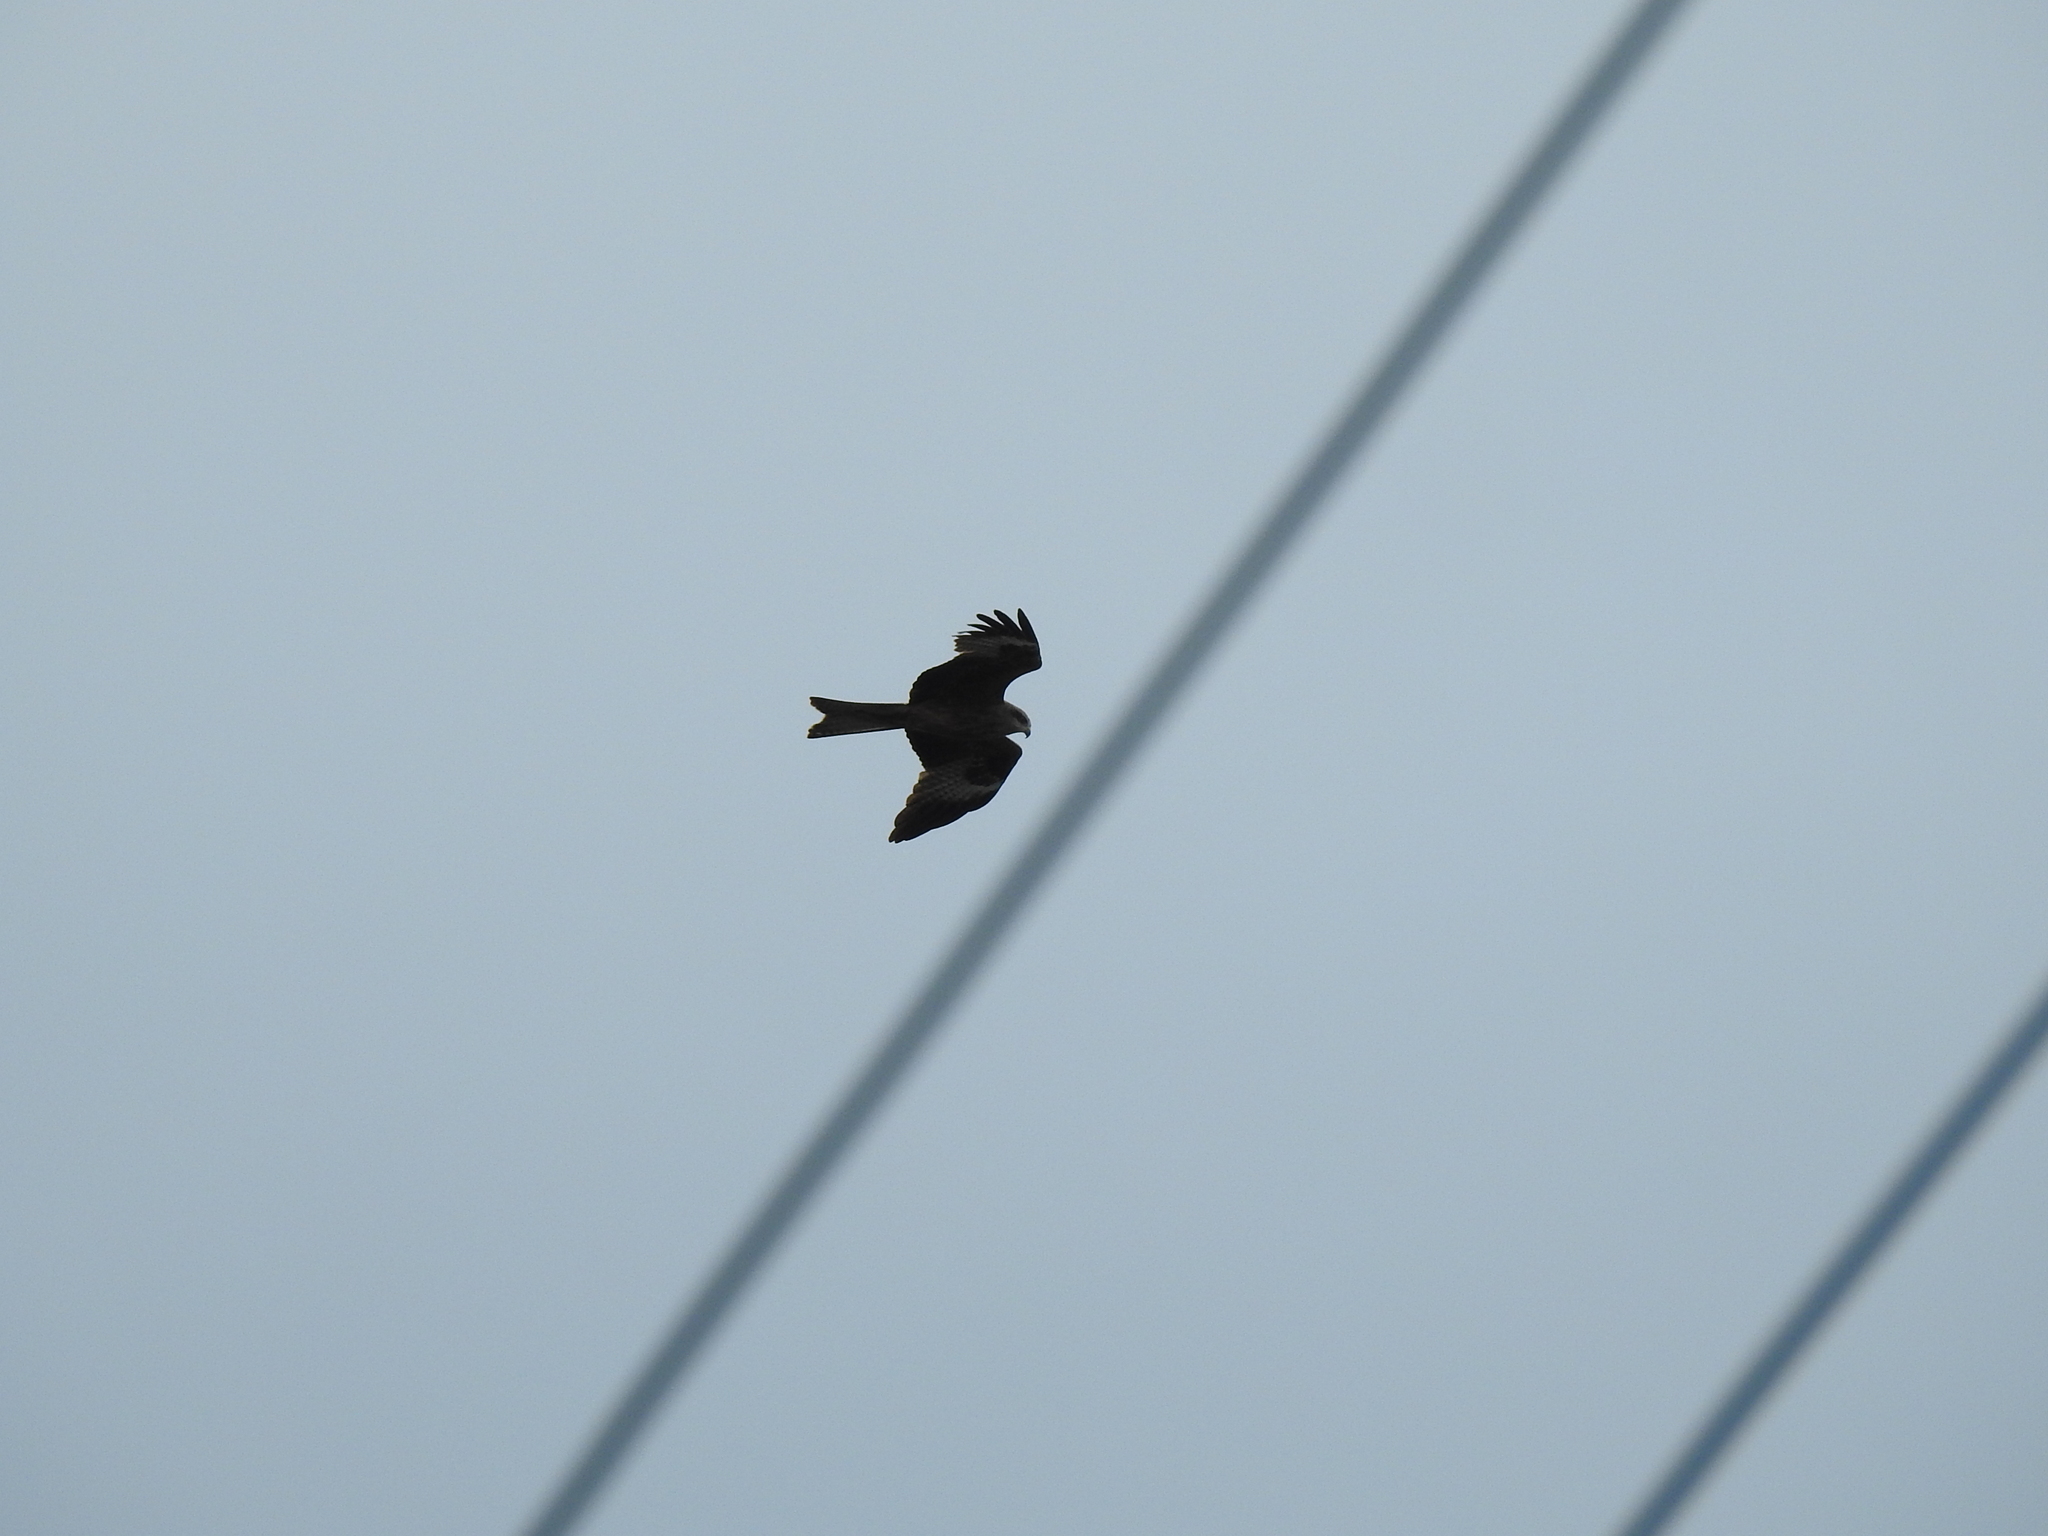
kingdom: Animalia
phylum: Chordata
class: Aves
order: Accipitriformes
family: Accipitridae
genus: Milvus
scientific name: Milvus migrans
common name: Black kite
